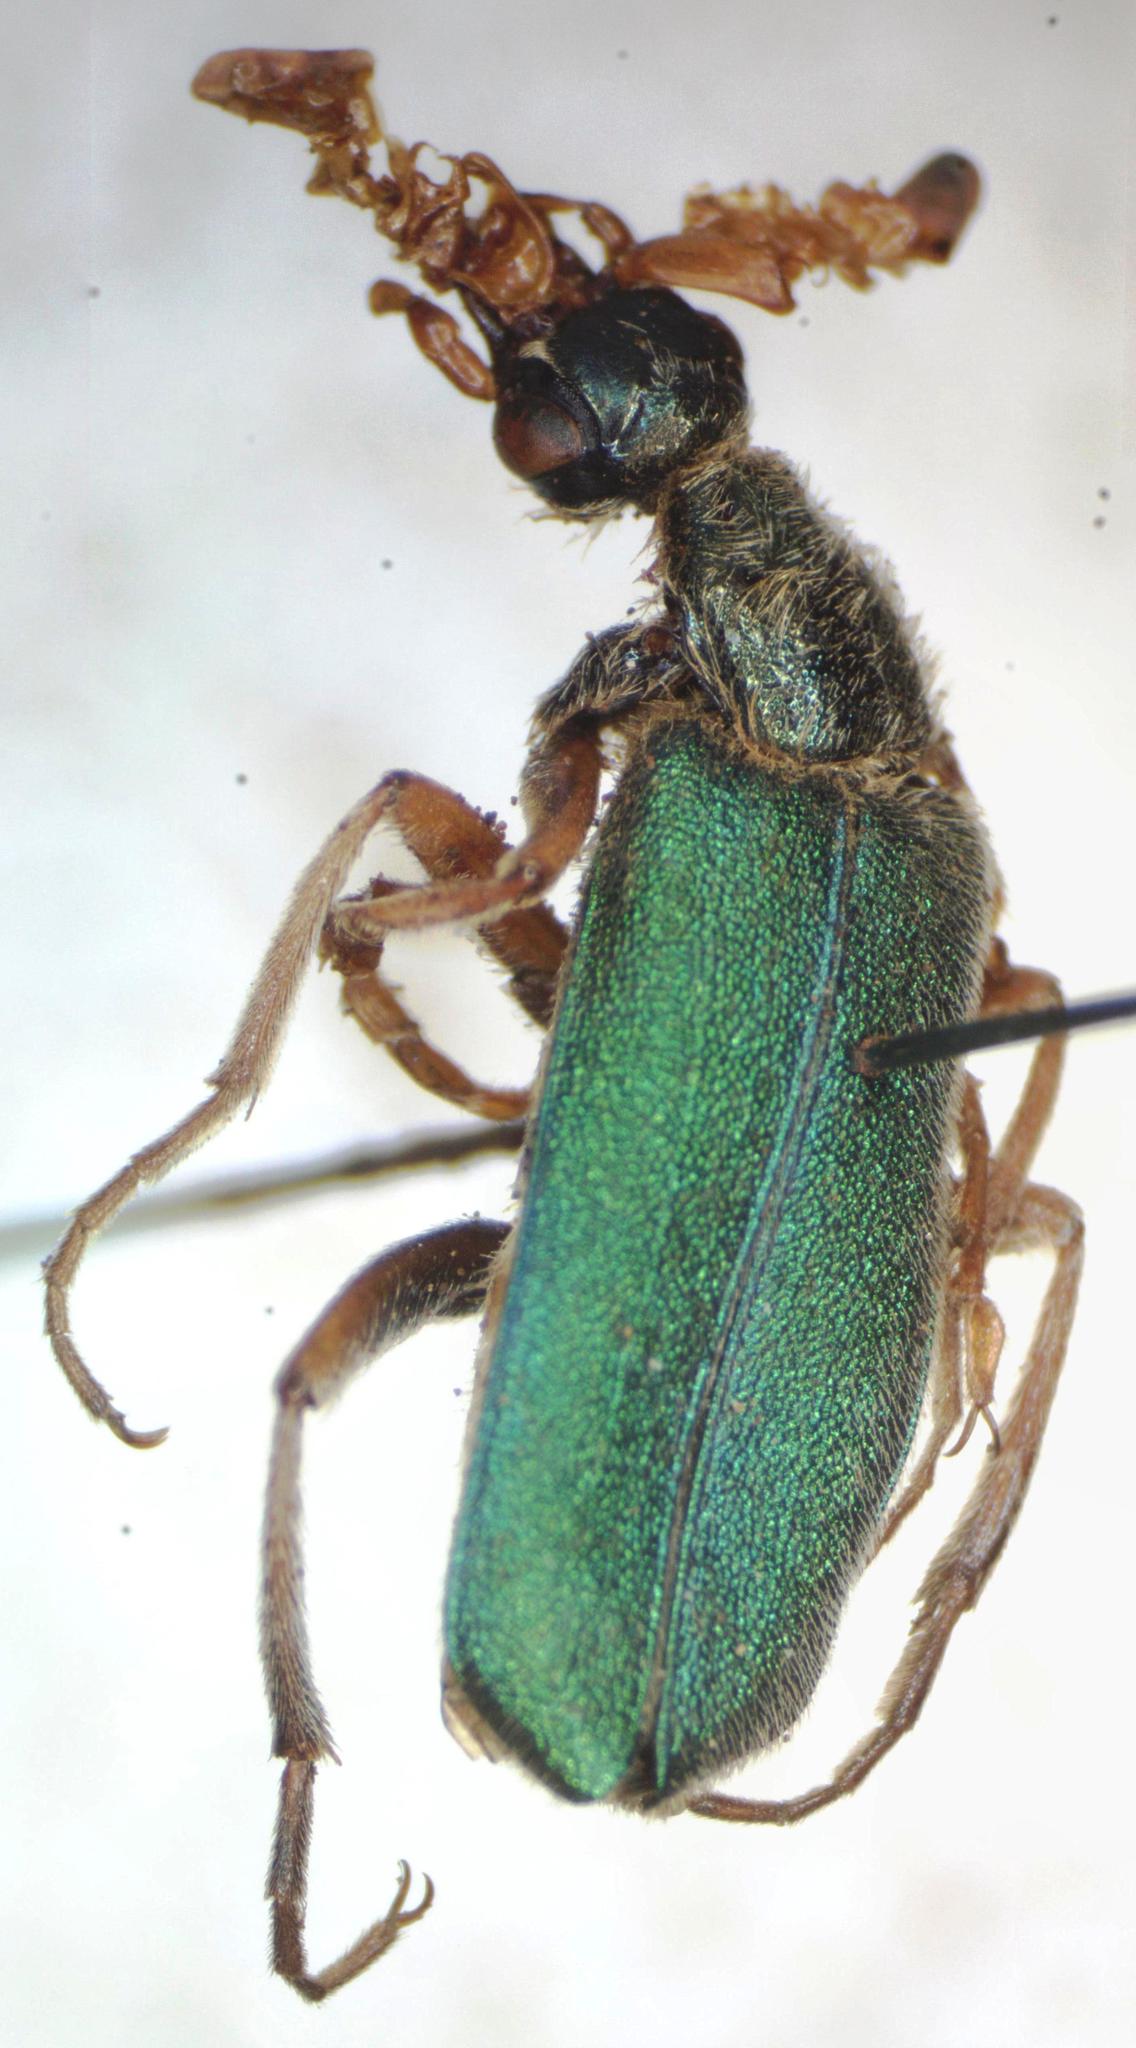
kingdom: Animalia
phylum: Arthropoda
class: Insecta
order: Coleoptera
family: Meloidae
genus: Cerocoma
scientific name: Cerocoma schreberi
